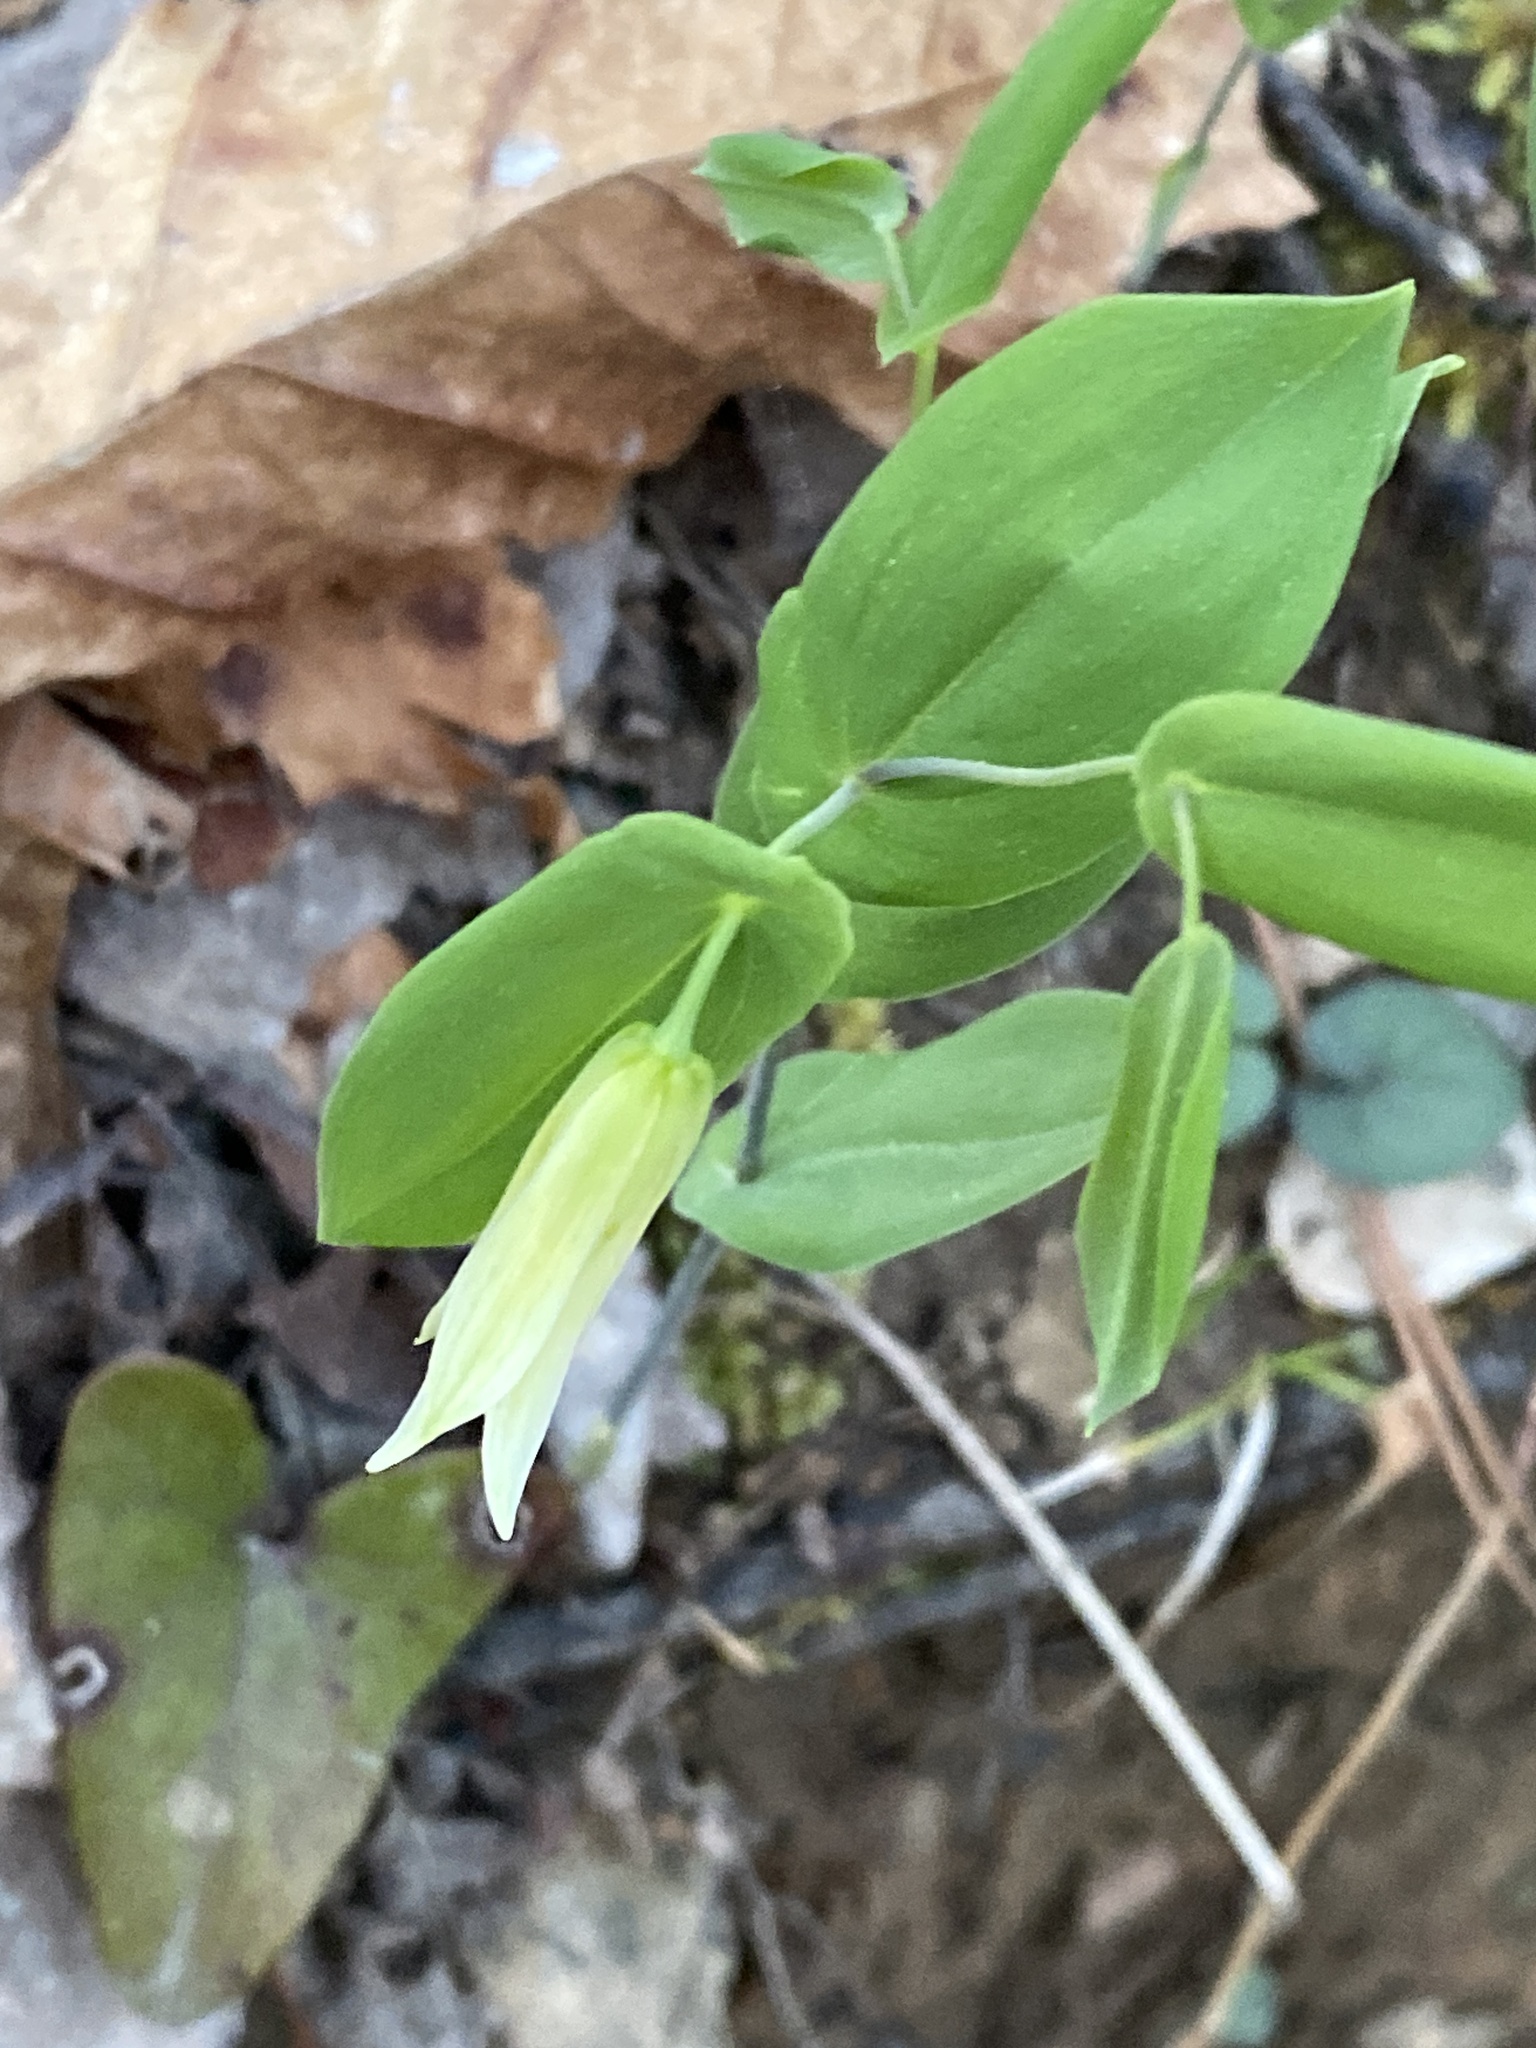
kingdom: Plantae
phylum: Tracheophyta
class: Liliopsida
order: Liliales
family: Colchicaceae
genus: Uvularia
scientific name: Uvularia perfoliata
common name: Perfoliate bellwort
